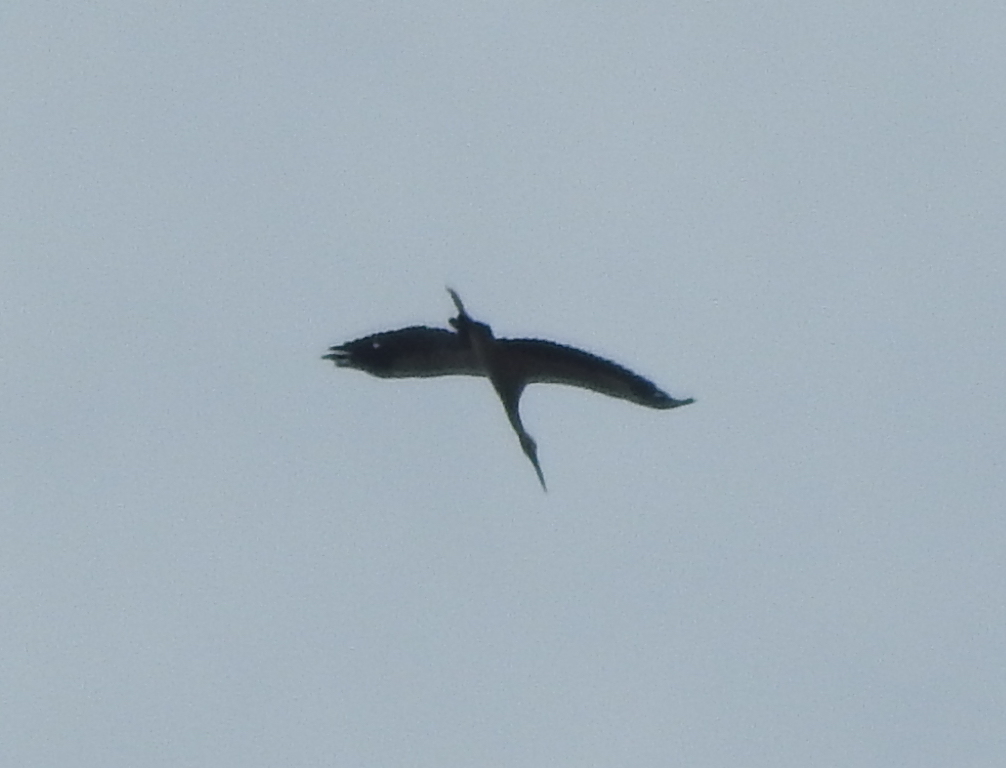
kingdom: Animalia
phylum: Chordata
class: Aves
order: Ciconiiformes
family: Ciconiidae
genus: Anastomus
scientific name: Anastomus oscitans
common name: Asian openbill
